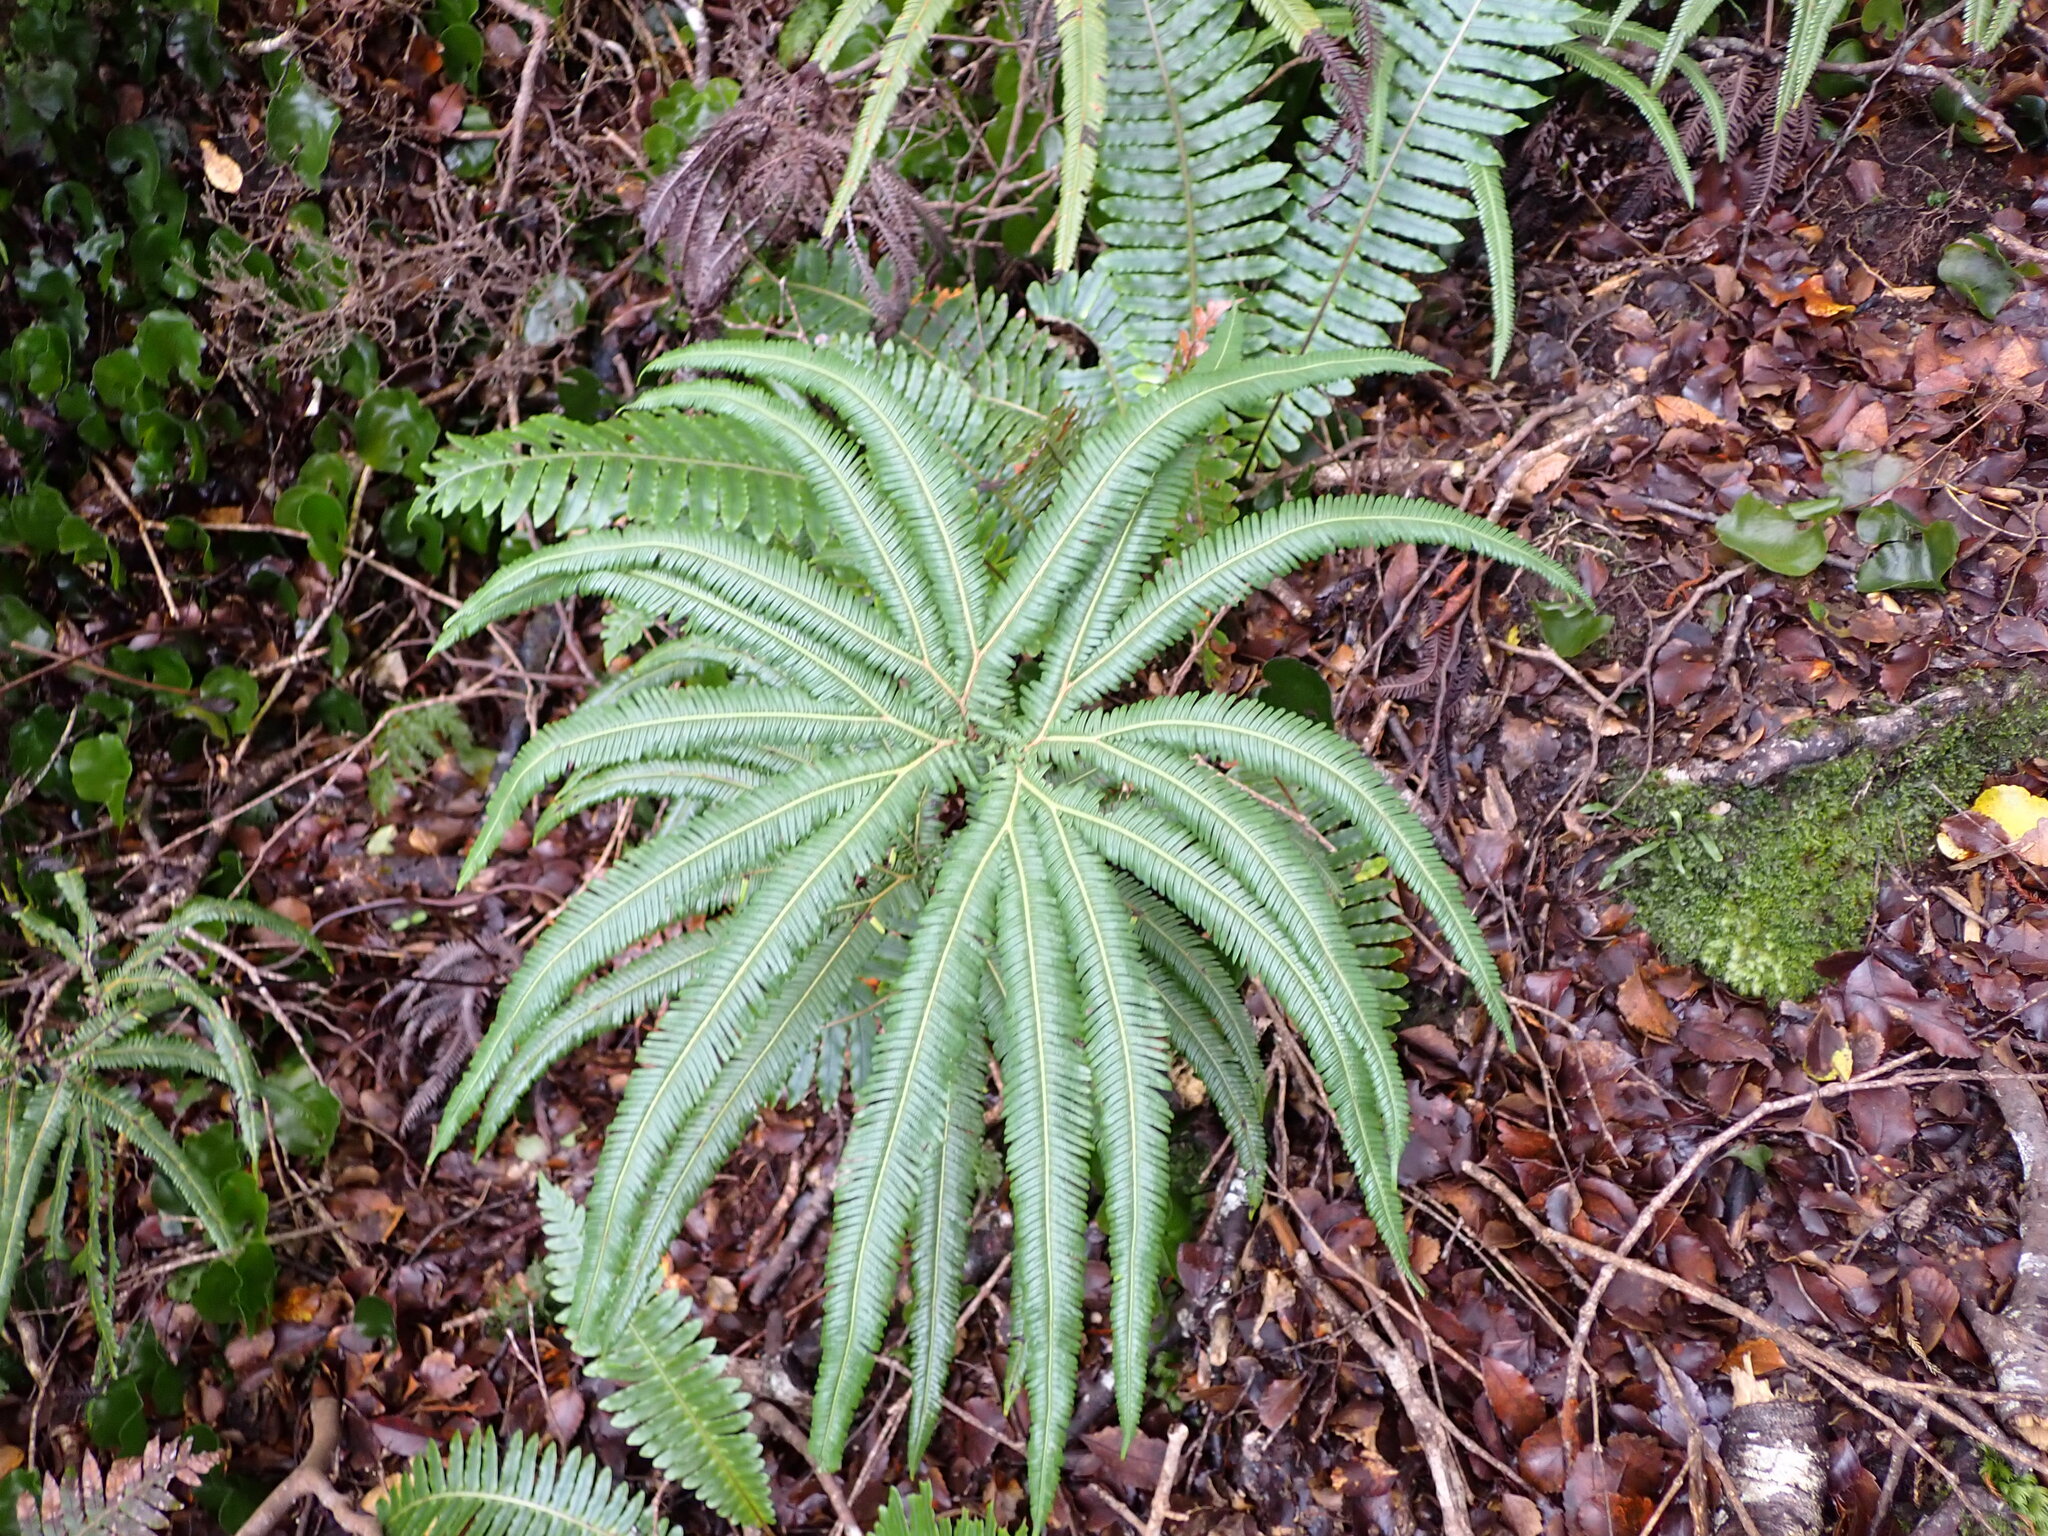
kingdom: Plantae
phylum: Tracheophyta
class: Polypodiopsida
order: Gleicheniales
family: Gleicheniaceae
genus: Sticherus
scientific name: Sticherus cunninghamii
